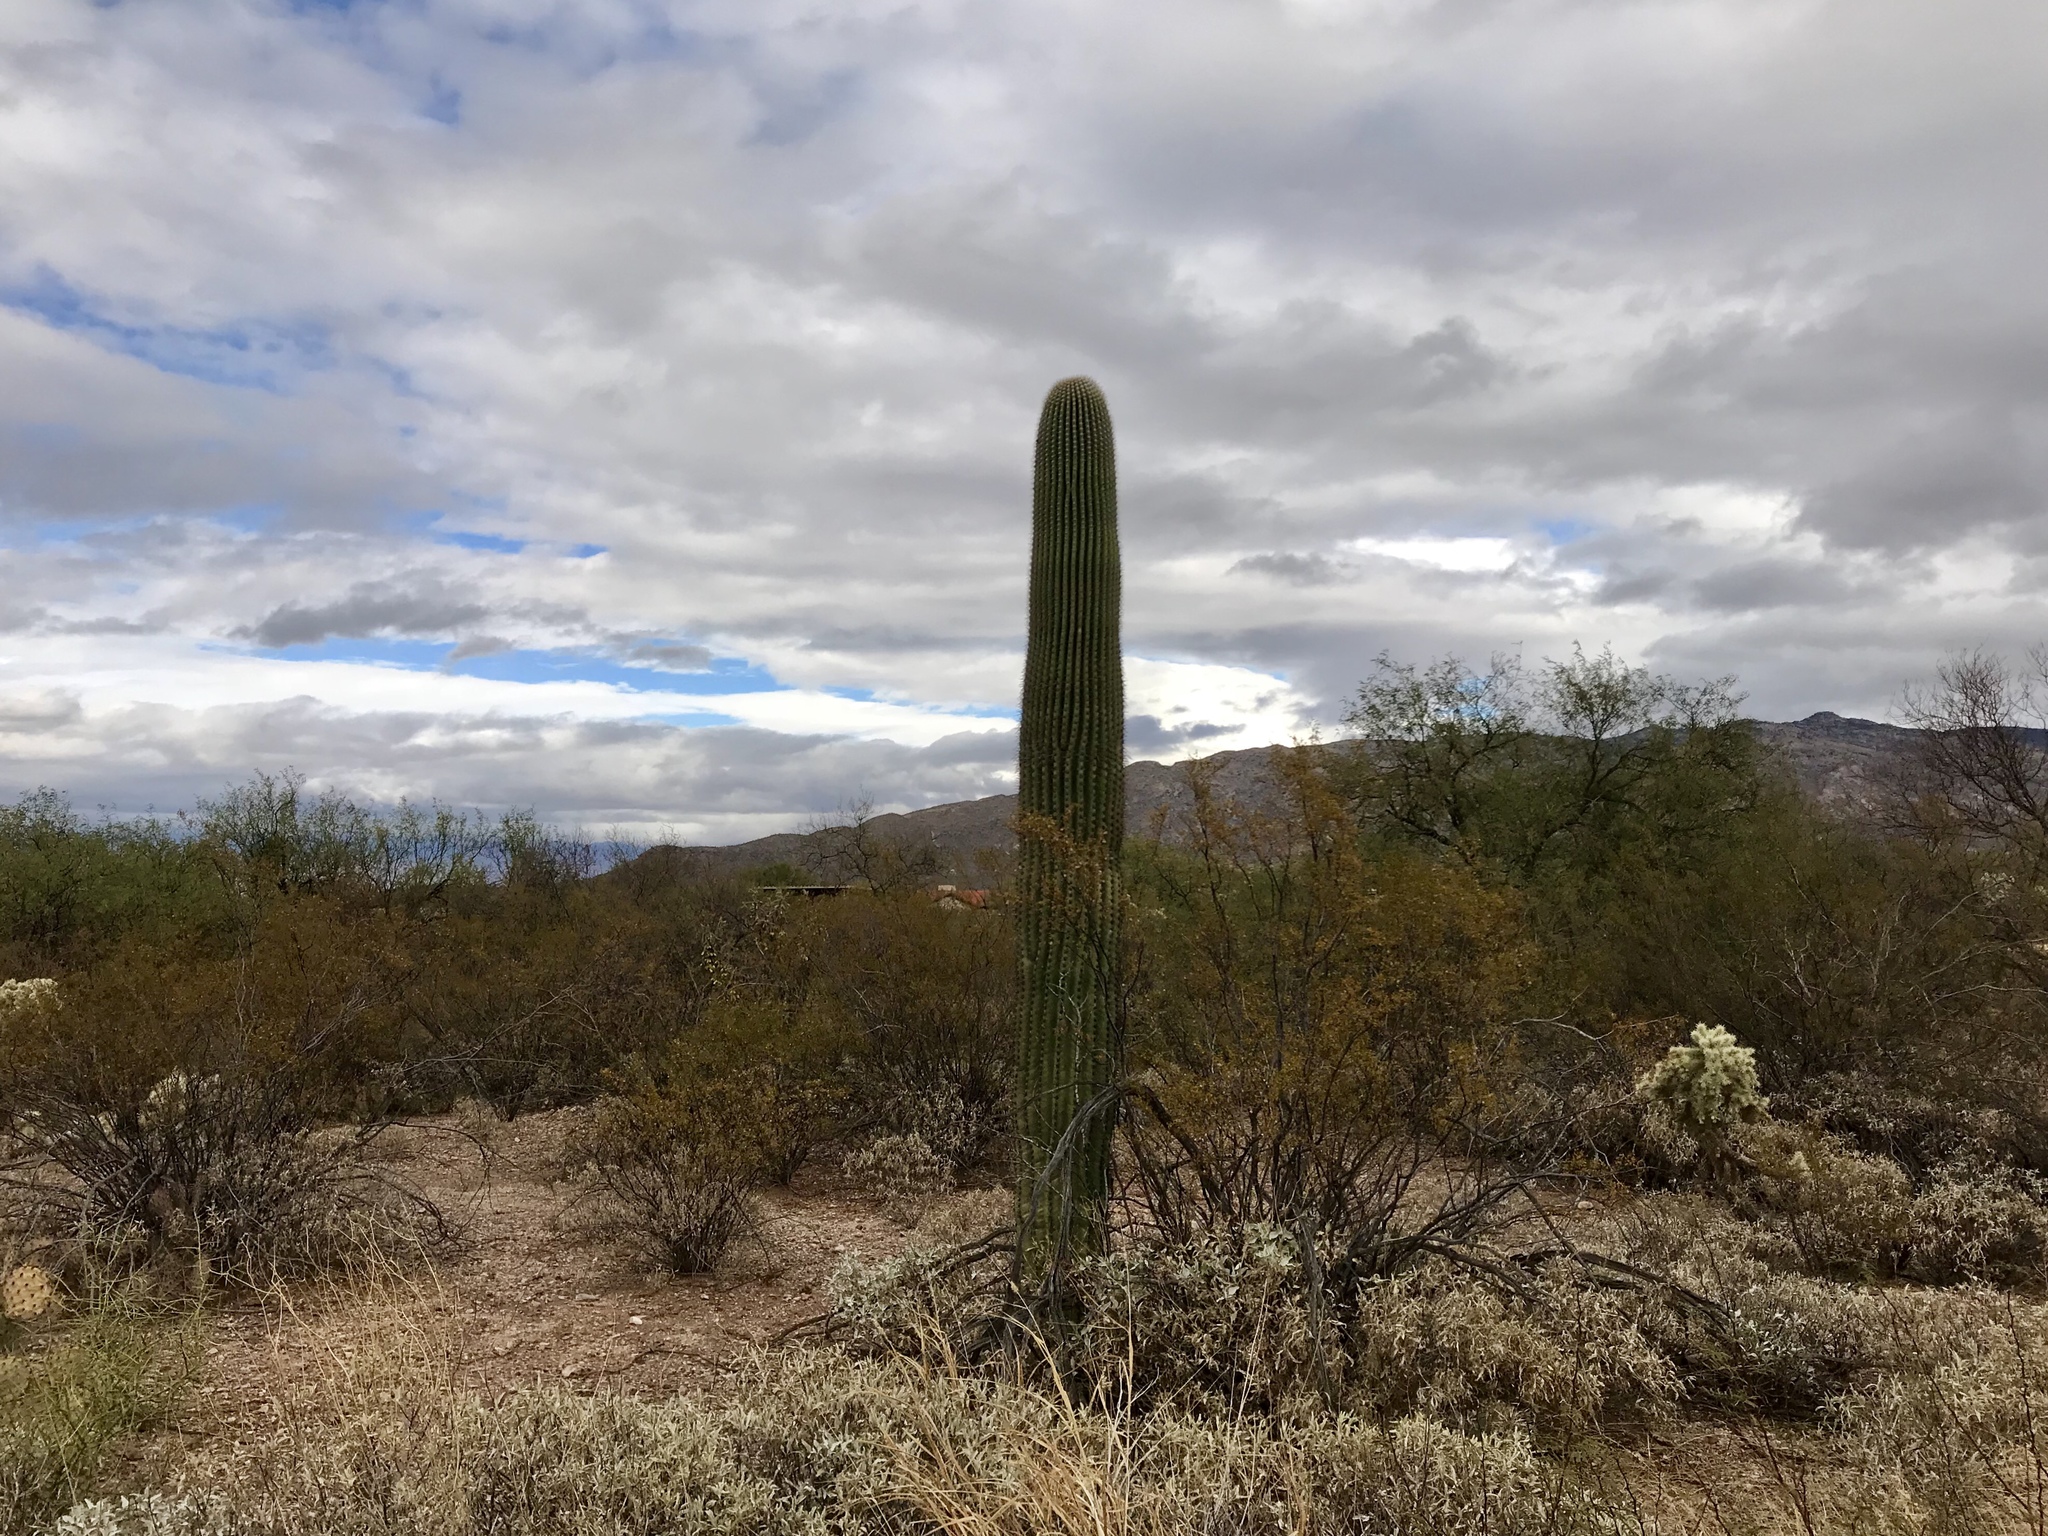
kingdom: Plantae
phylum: Tracheophyta
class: Magnoliopsida
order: Caryophyllales
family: Cactaceae
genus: Carnegiea
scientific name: Carnegiea gigantea
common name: Saguaro
